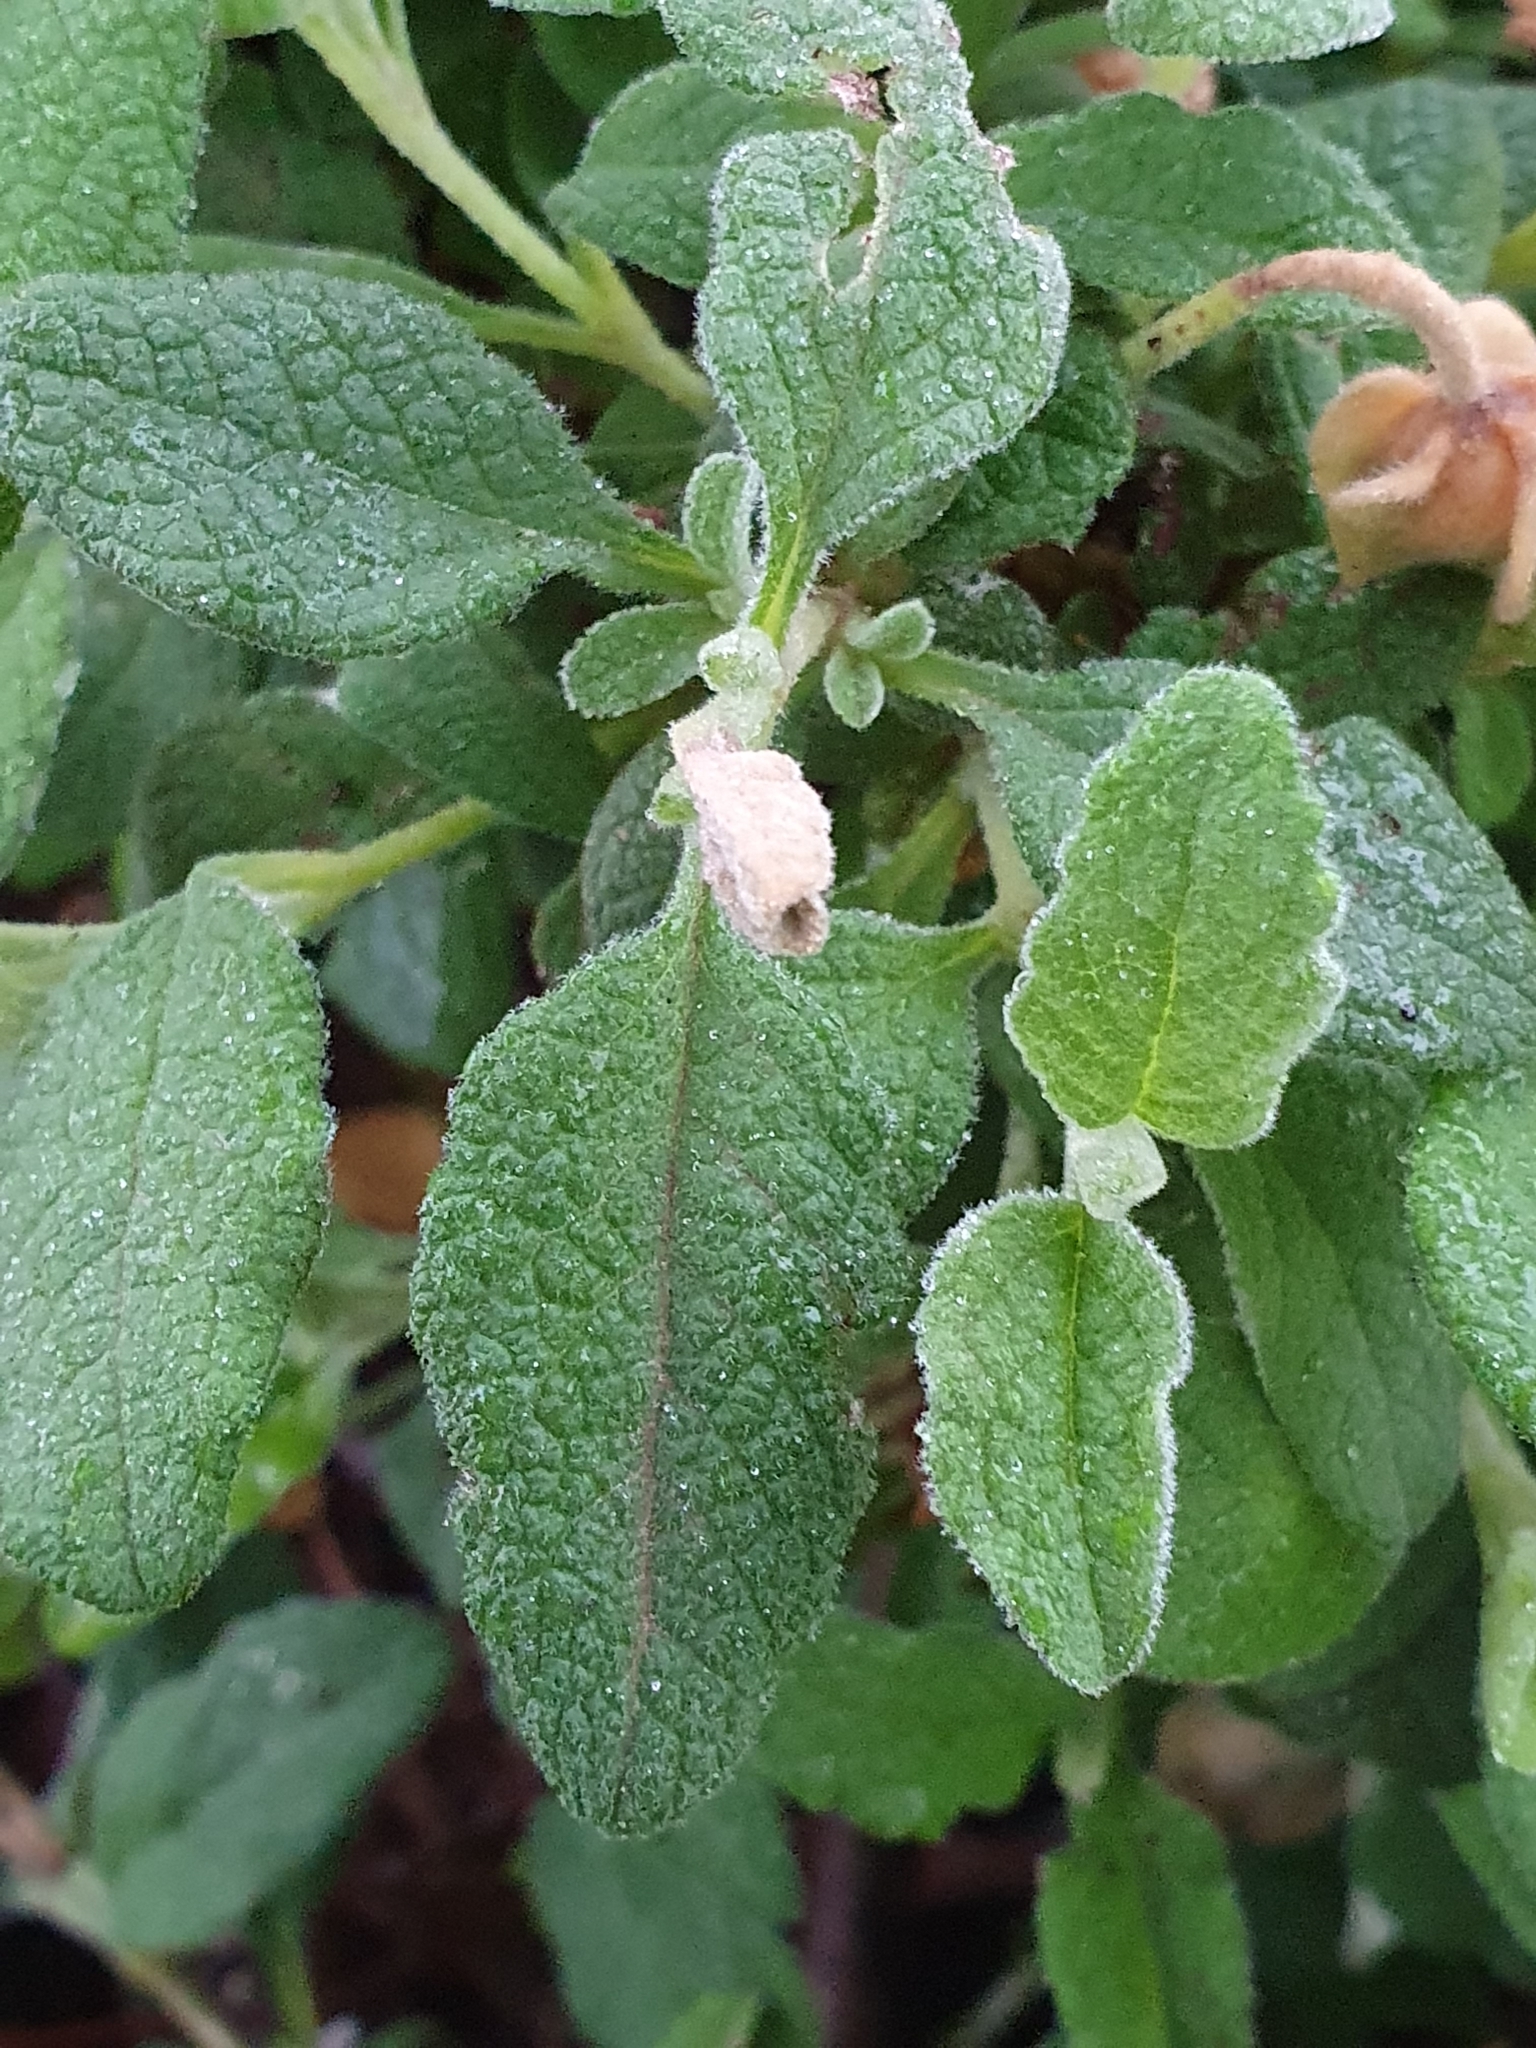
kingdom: Plantae
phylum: Tracheophyta
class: Magnoliopsida
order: Malvales
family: Cistaceae
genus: Cistus
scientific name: Cistus salviifolius
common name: Salvia cistus
